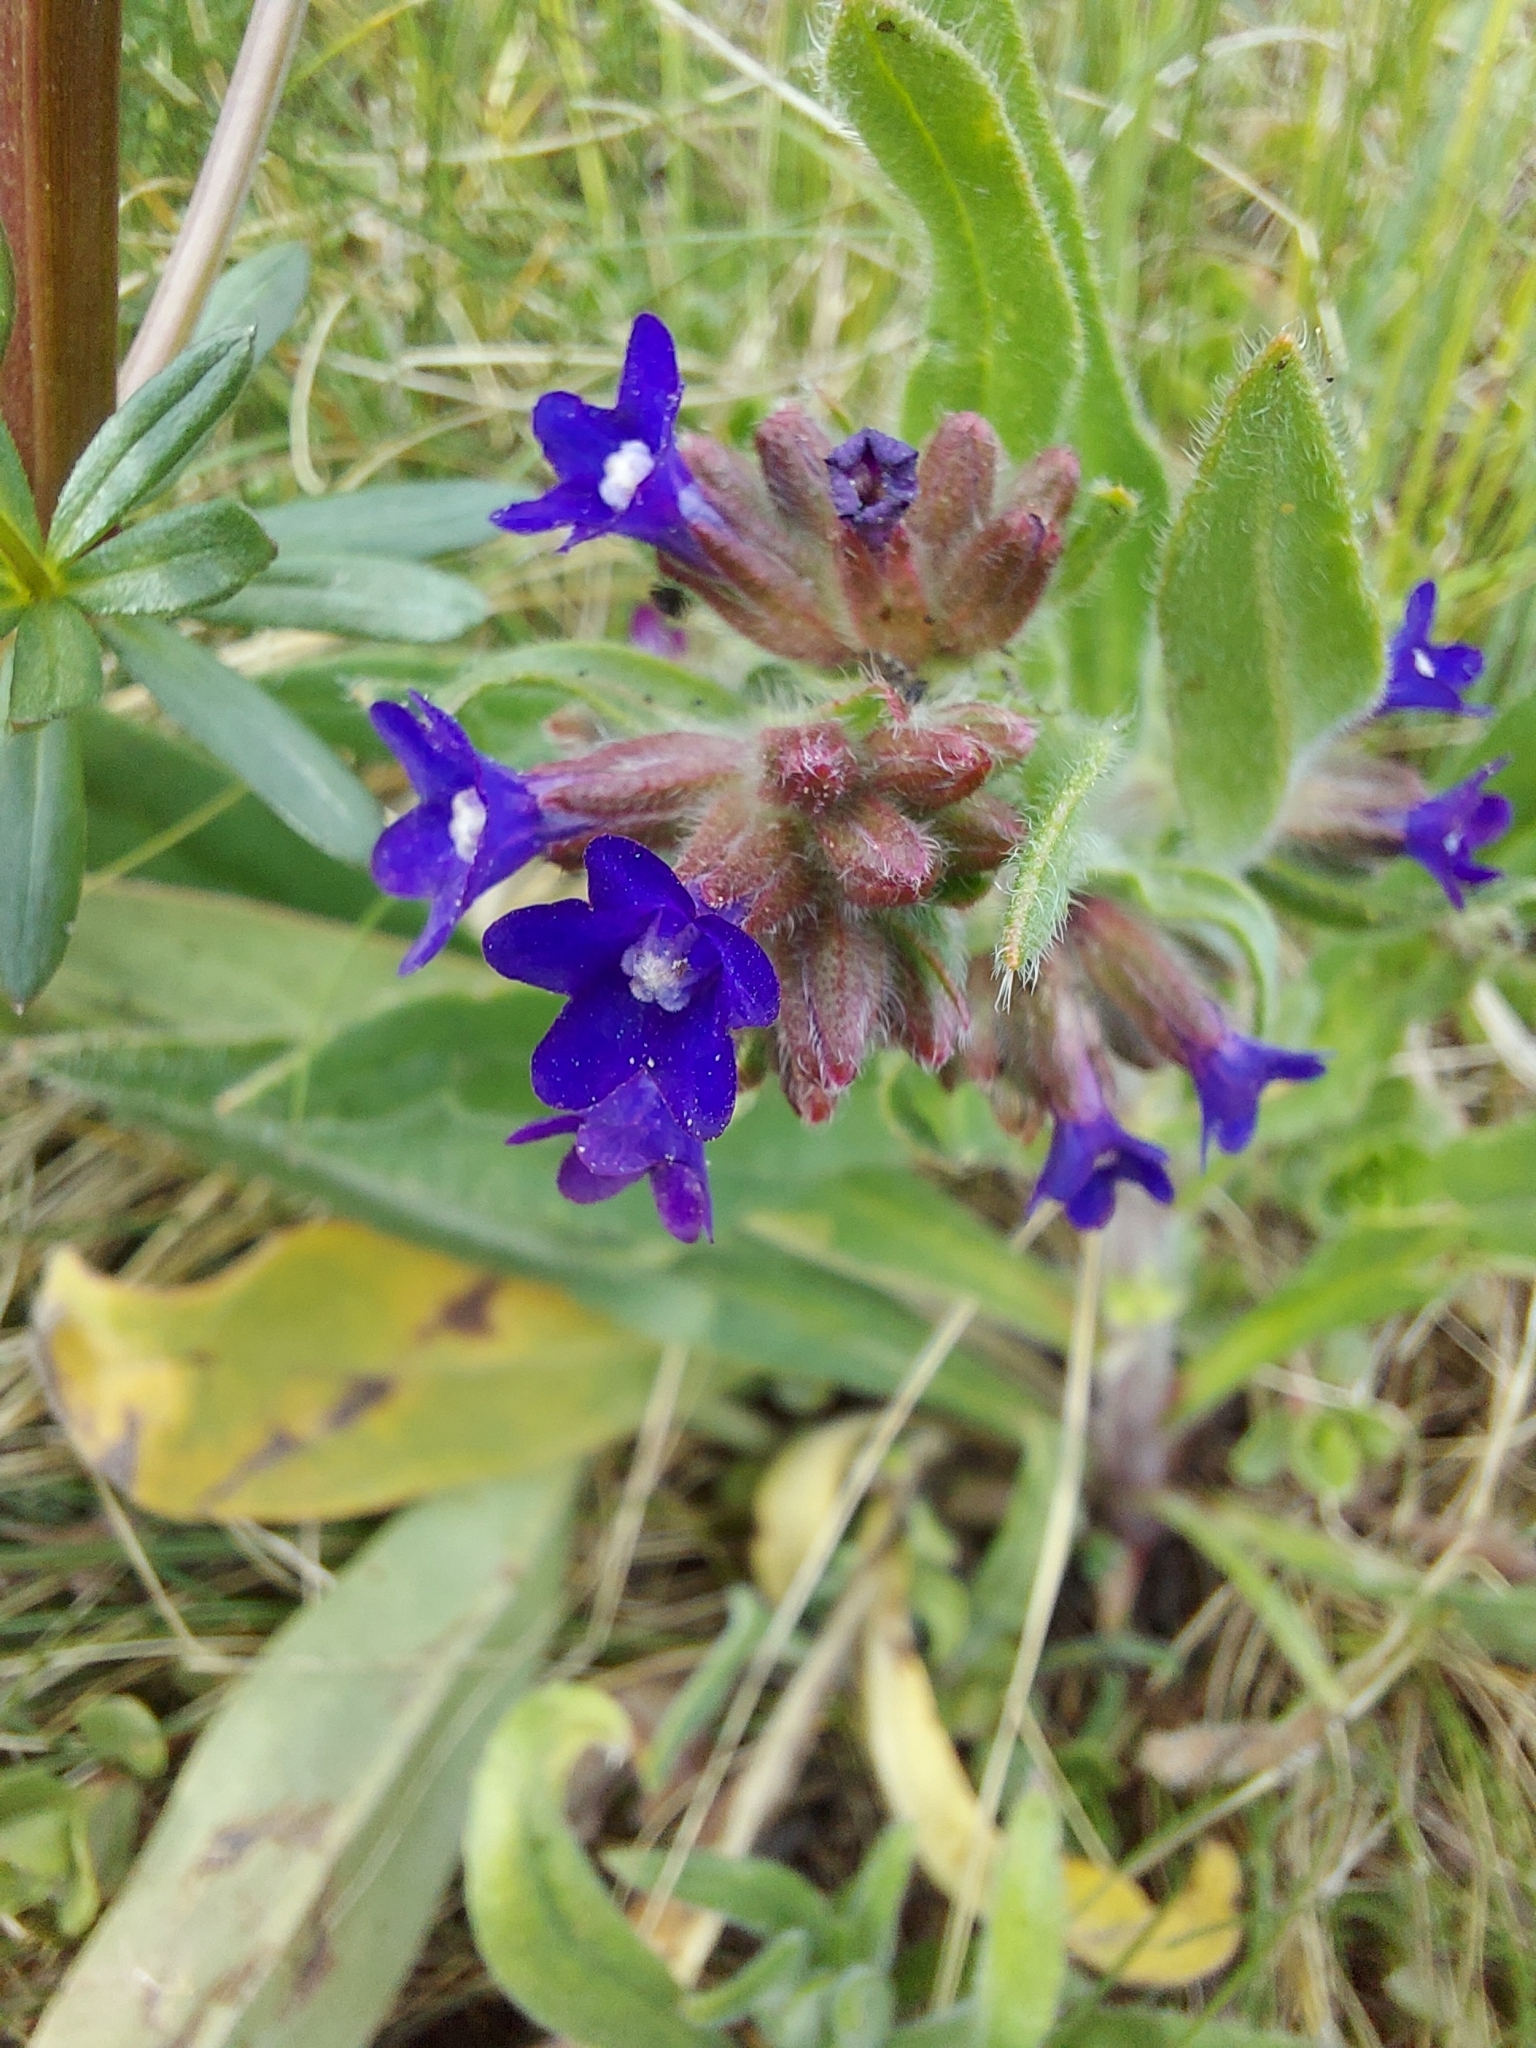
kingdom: Plantae
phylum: Tracheophyta
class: Magnoliopsida
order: Boraginales
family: Boraginaceae
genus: Anchusa
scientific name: Anchusa officinalis
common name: Alkanet
